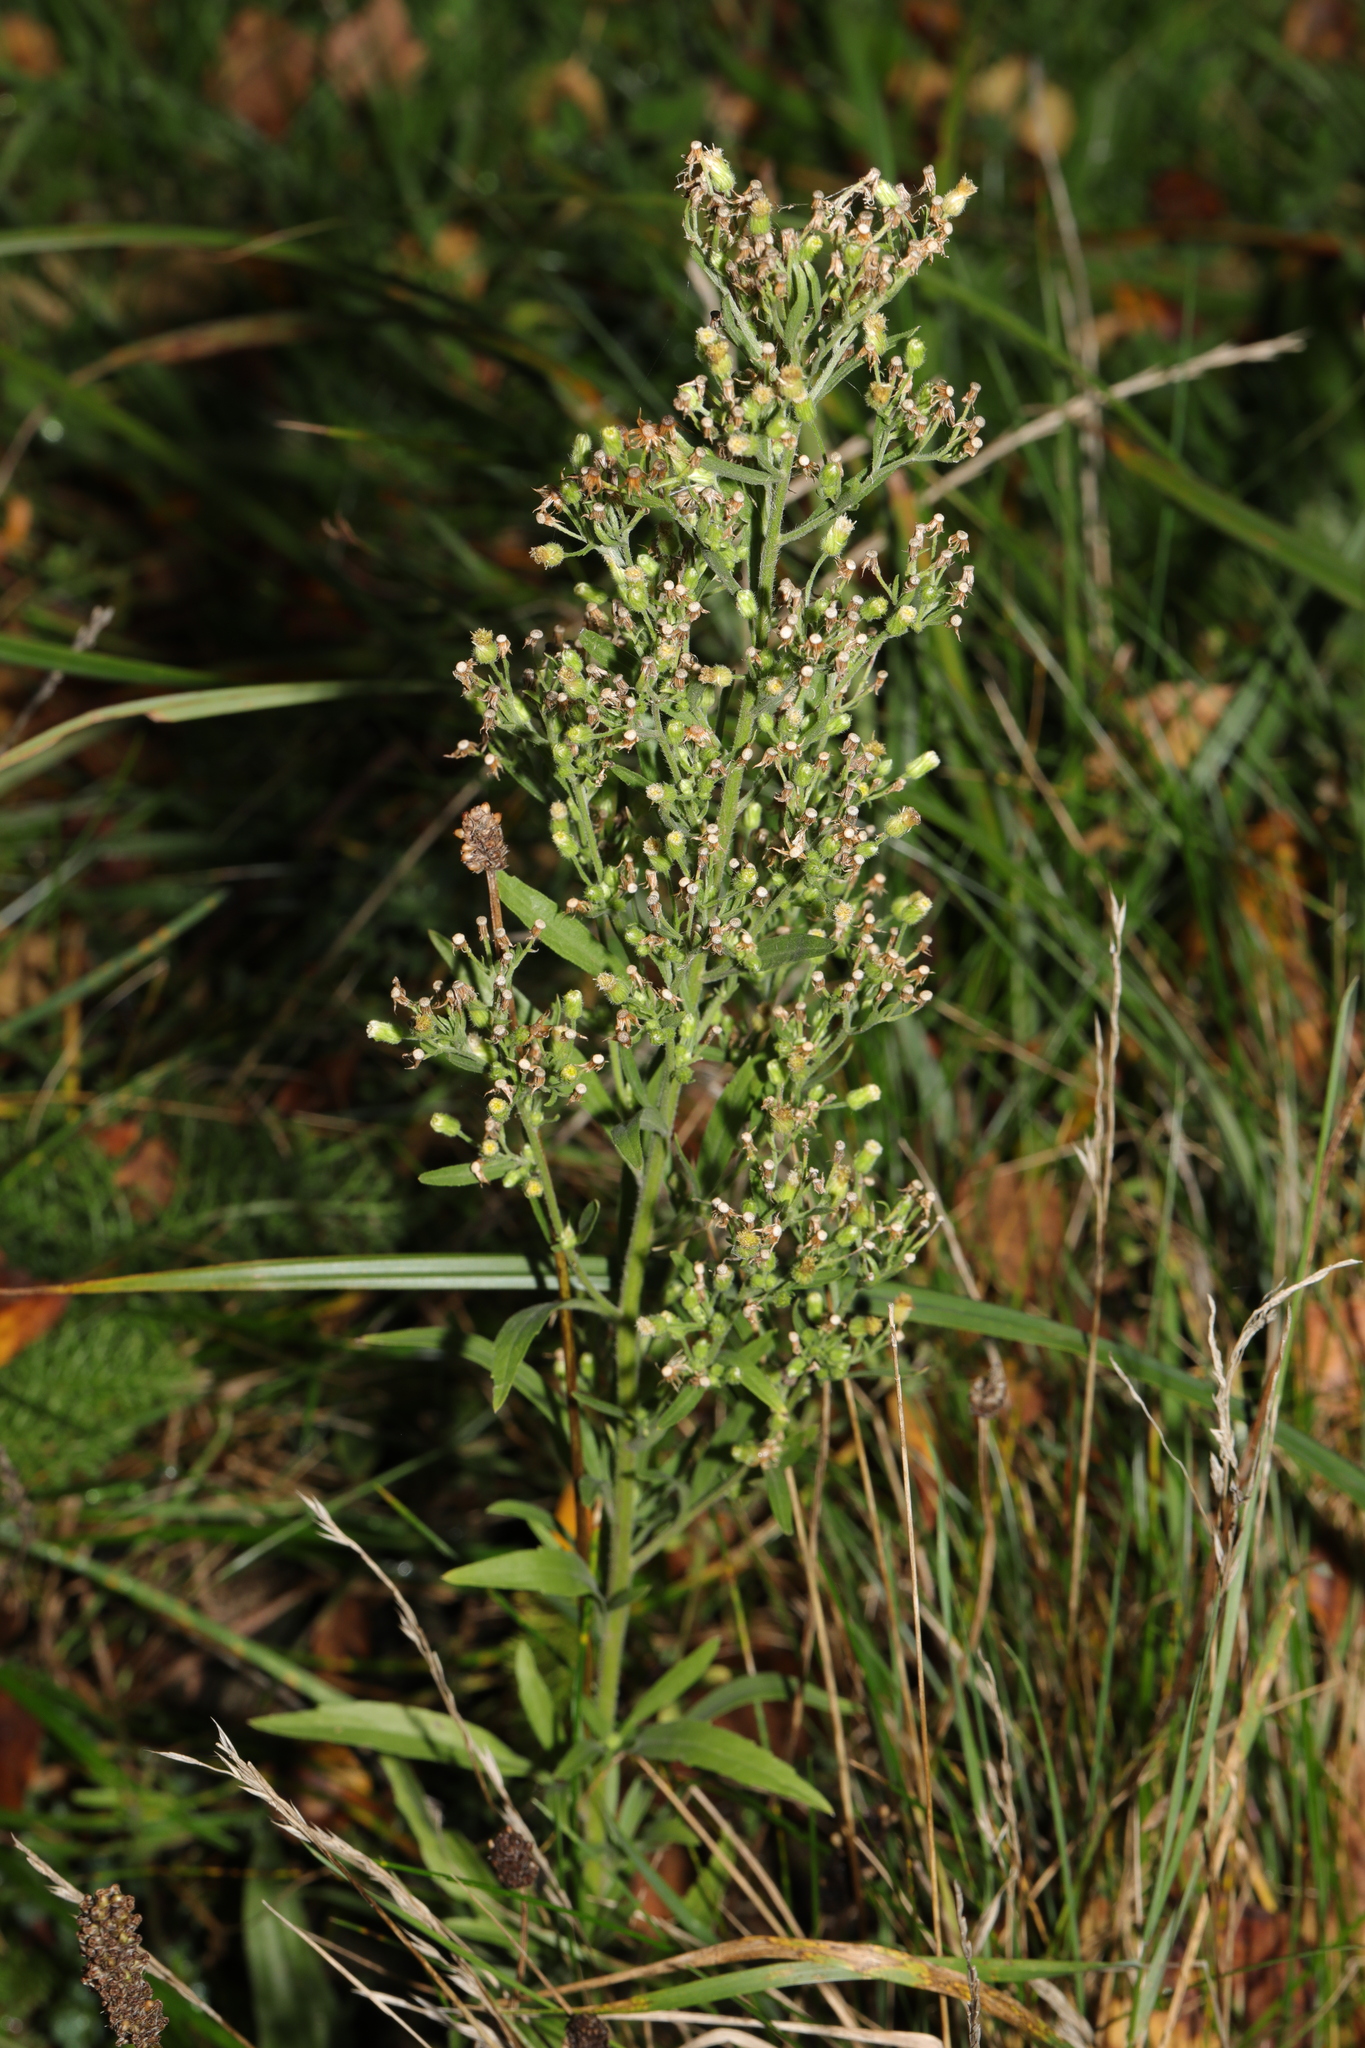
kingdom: Plantae
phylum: Tracheophyta
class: Magnoliopsida
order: Asterales
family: Asteraceae
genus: Erigeron
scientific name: Erigeron sumatrensis
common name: Daisy
